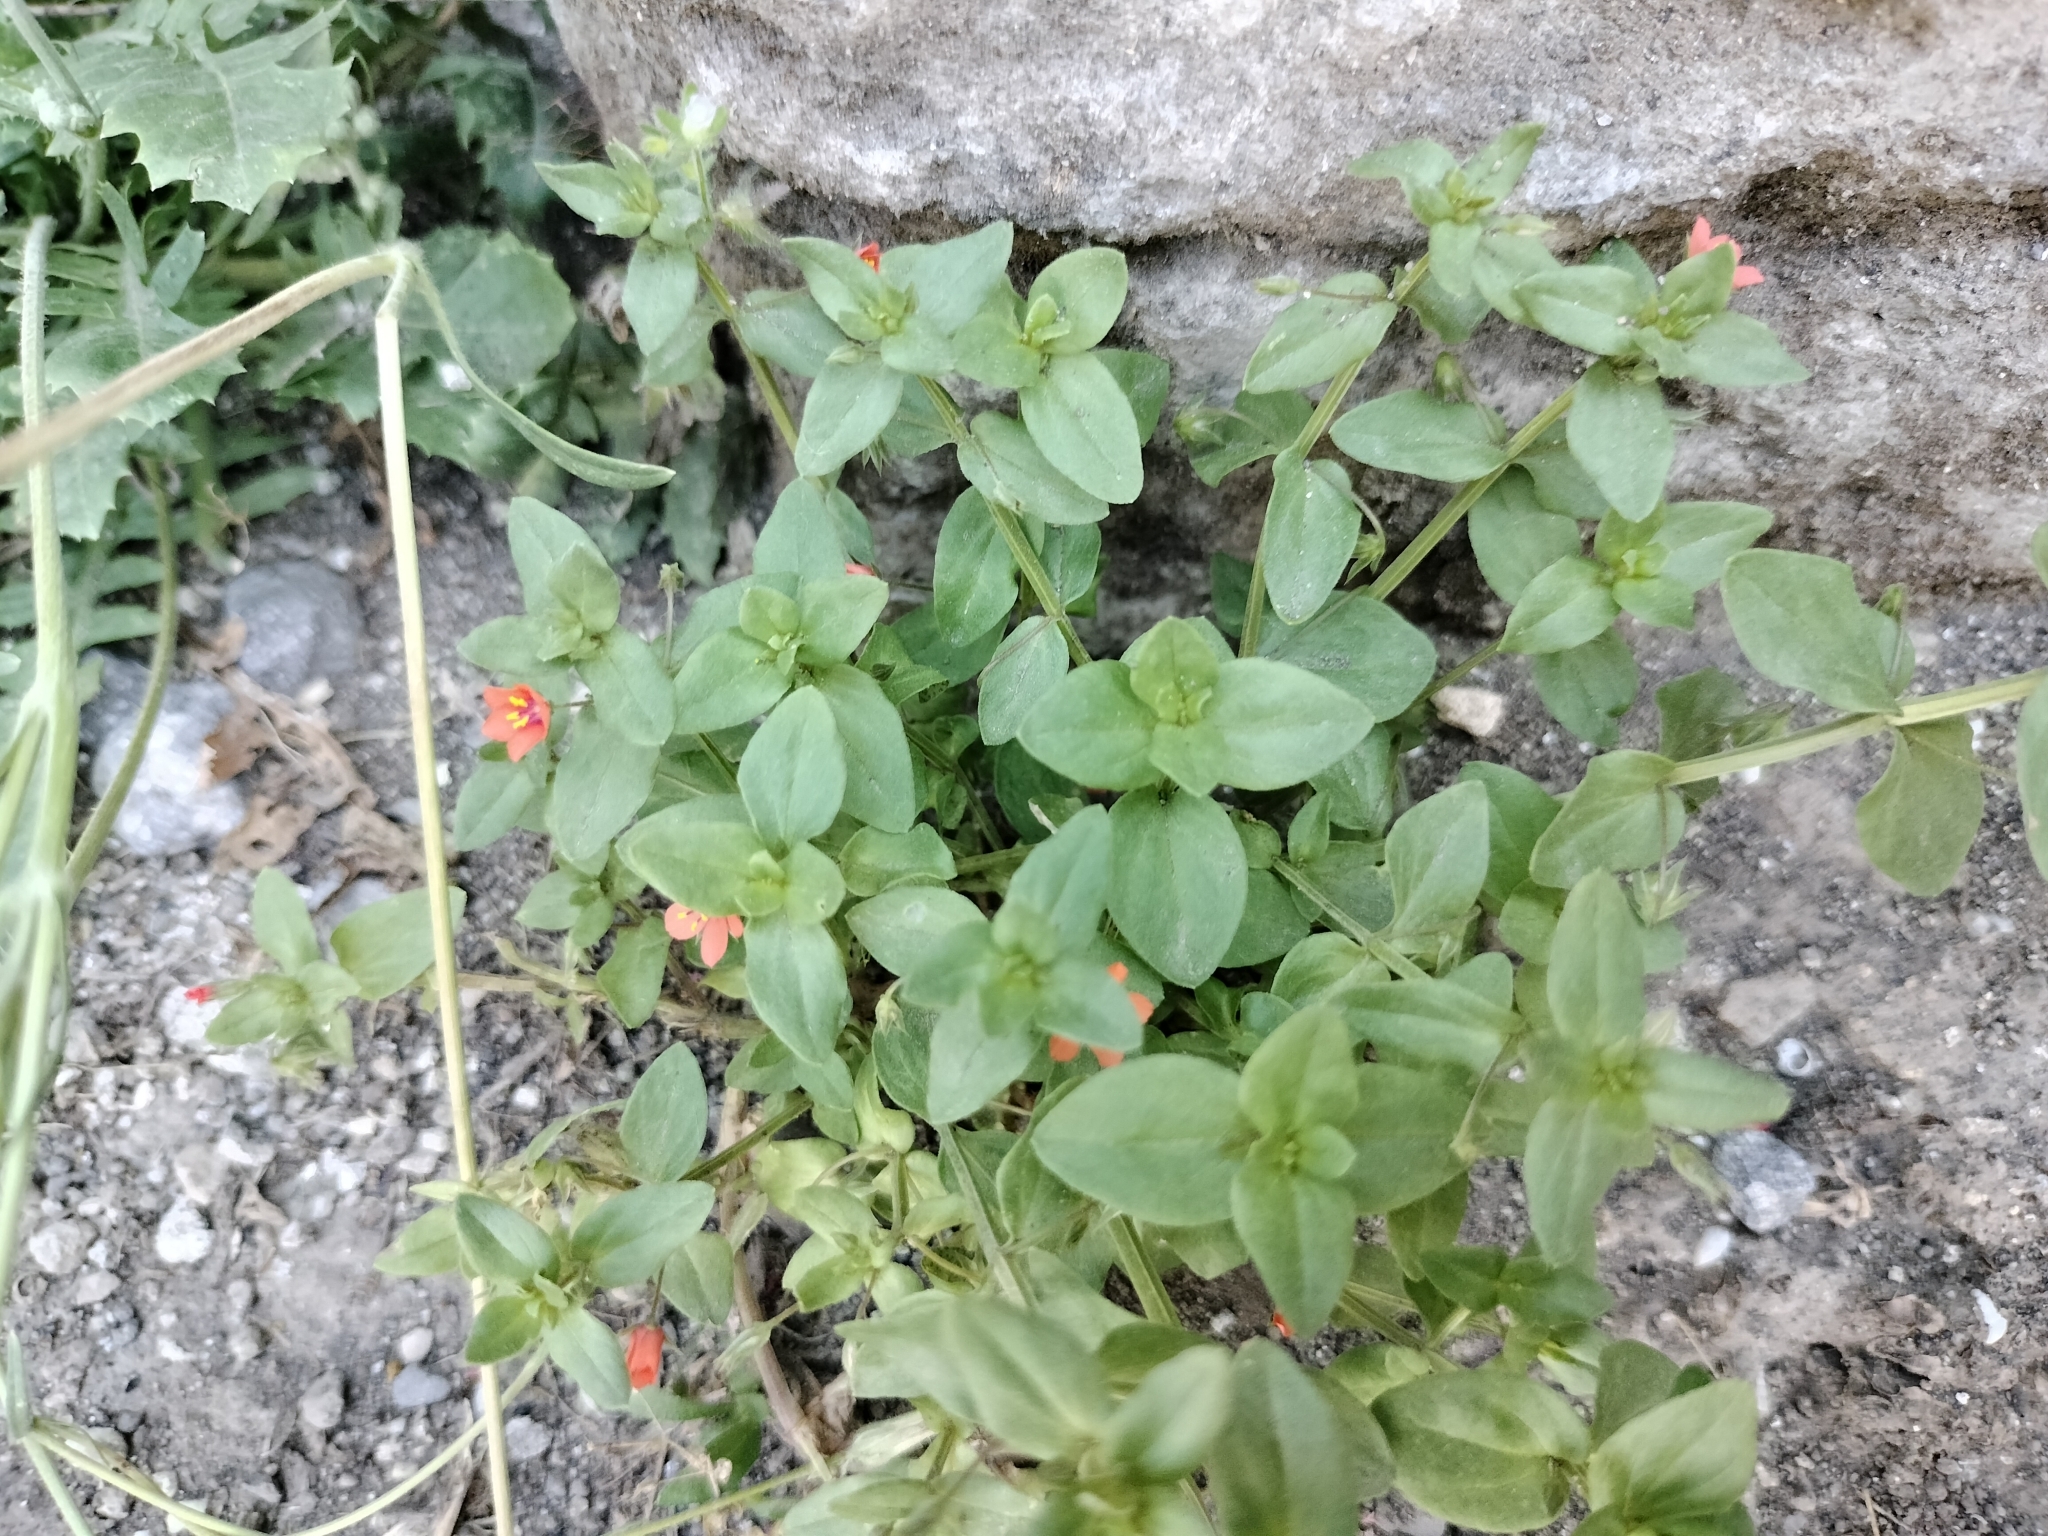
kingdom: Plantae
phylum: Tracheophyta
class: Magnoliopsida
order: Ericales
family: Primulaceae
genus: Lysimachia
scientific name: Lysimachia arvensis
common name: Scarlet pimpernel
